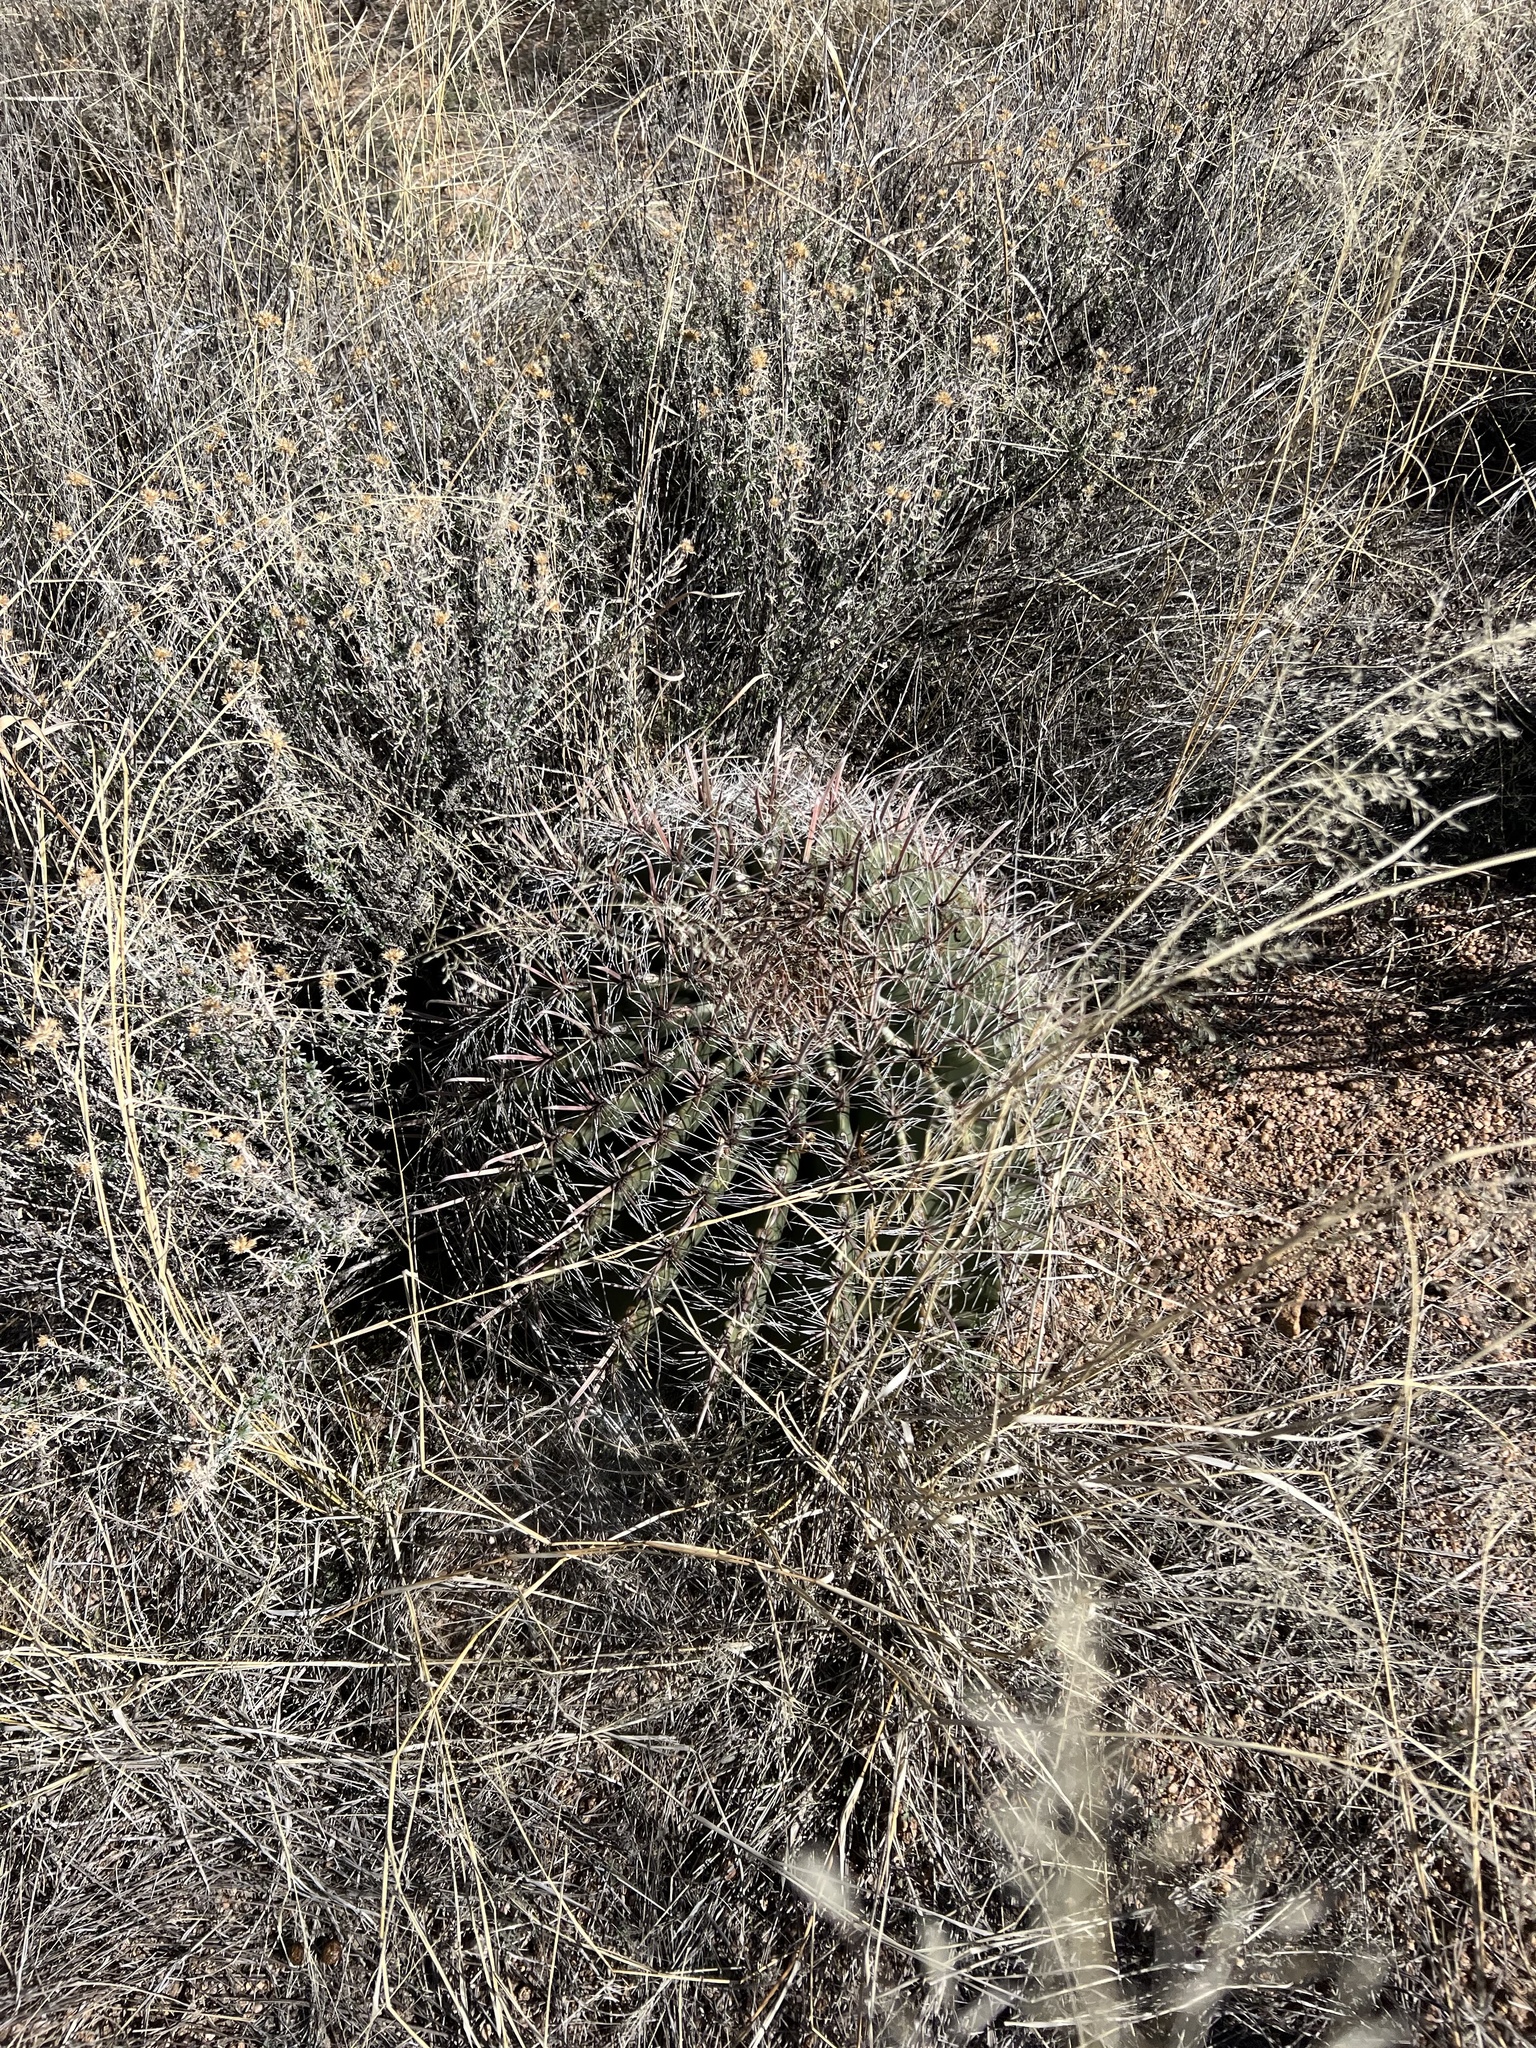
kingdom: Plantae
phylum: Tracheophyta
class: Magnoliopsida
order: Caryophyllales
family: Cactaceae
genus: Ferocactus
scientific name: Ferocactus wislizeni
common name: Candy barrel cactus
